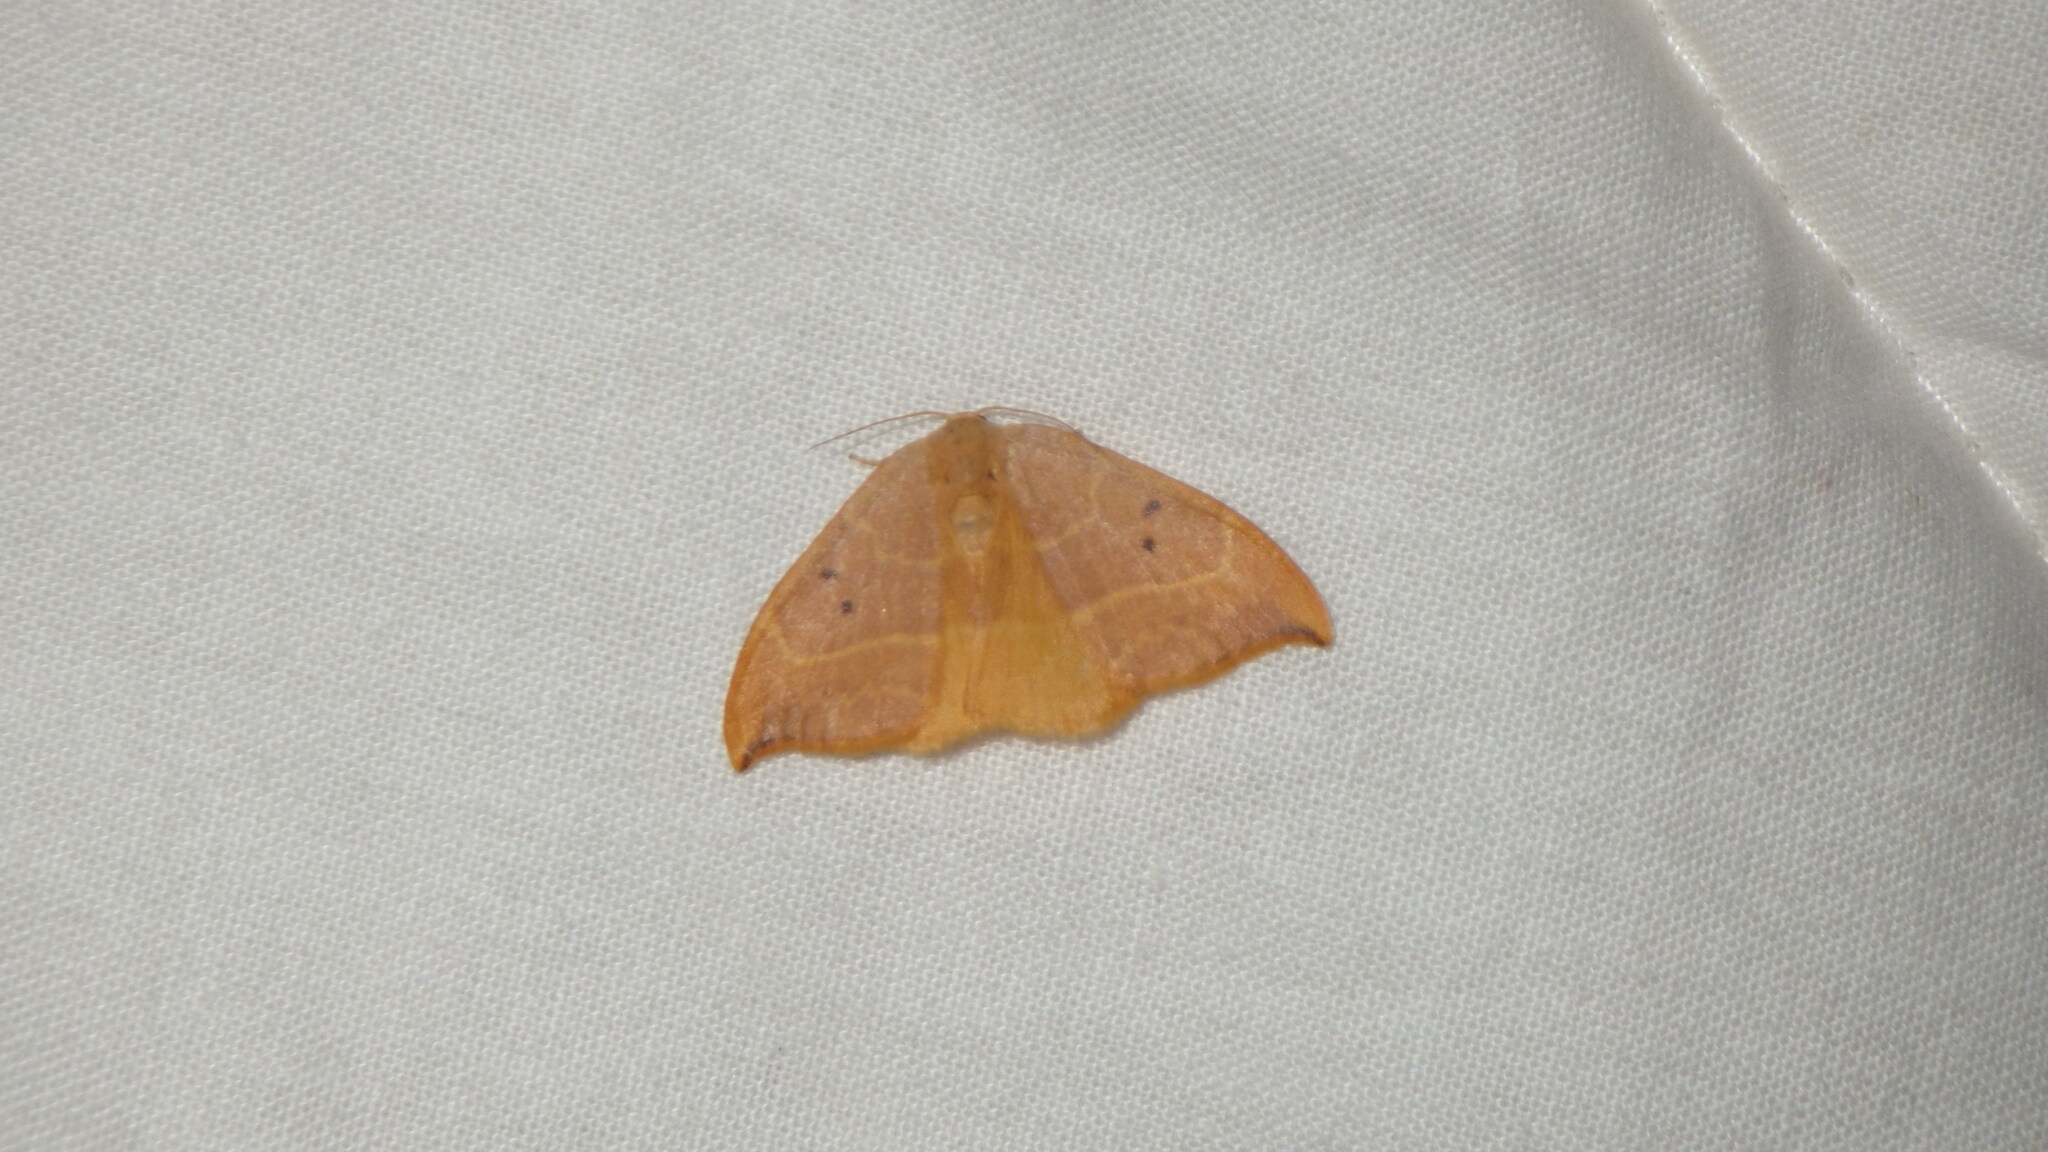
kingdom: Animalia
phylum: Arthropoda
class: Insecta
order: Lepidoptera
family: Drepanidae
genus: Watsonalla
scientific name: Watsonalla uncinula
